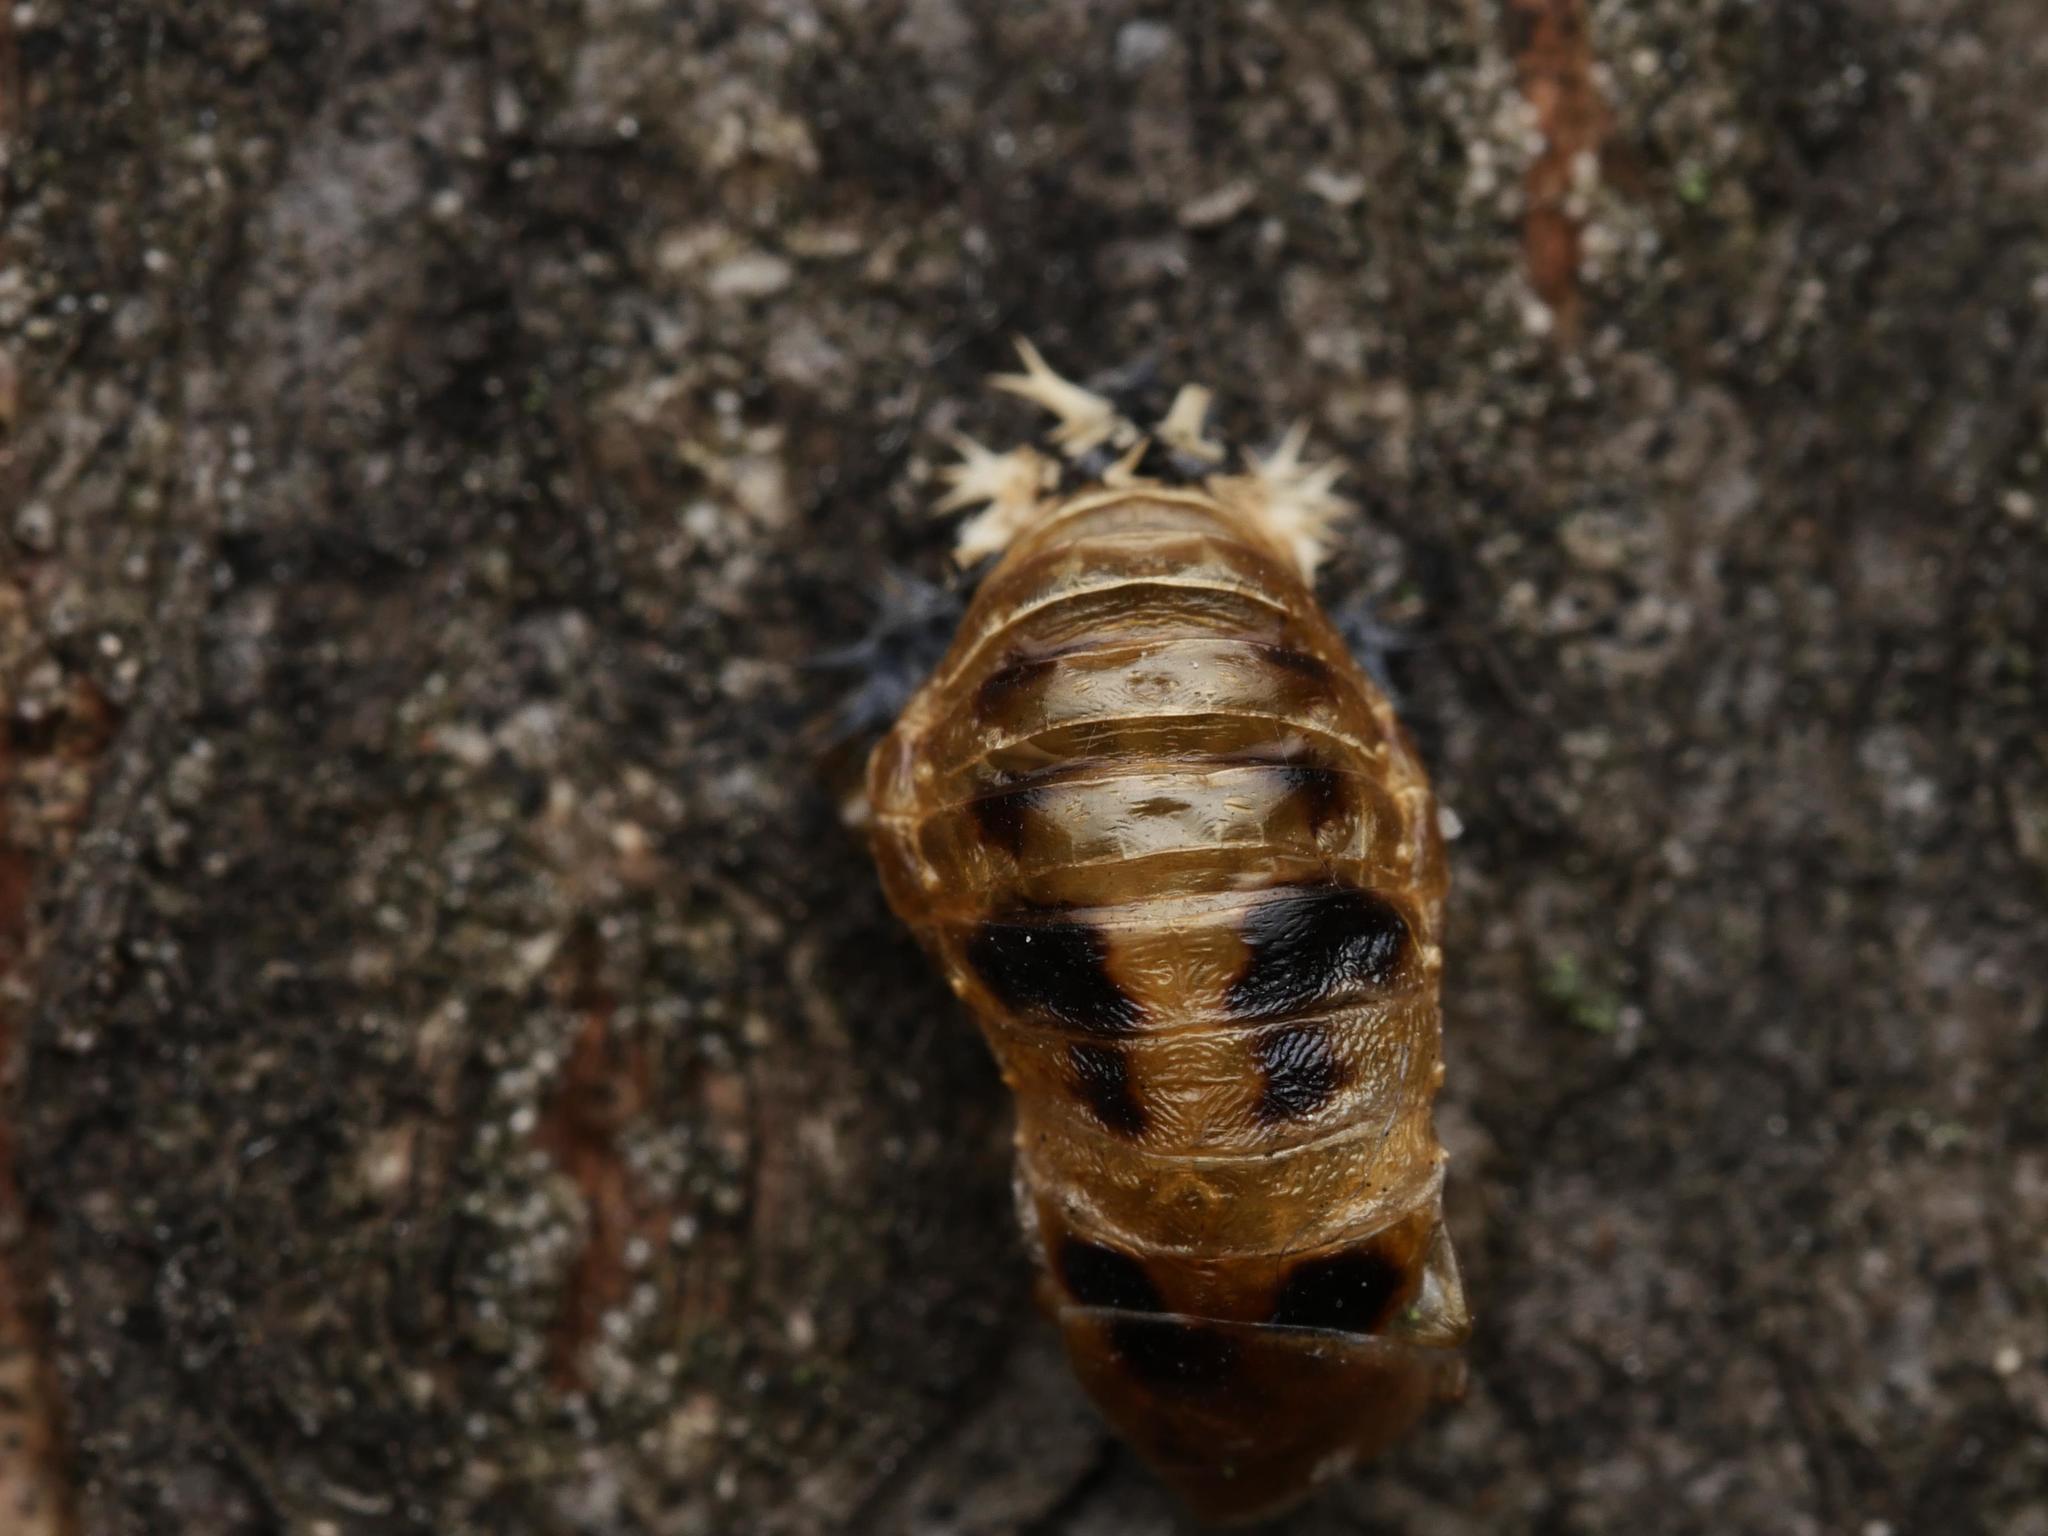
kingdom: Animalia
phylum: Arthropoda
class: Insecta
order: Coleoptera
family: Coccinellidae
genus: Harmonia
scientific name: Harmonia axyridis
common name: Harlequin ladybird
